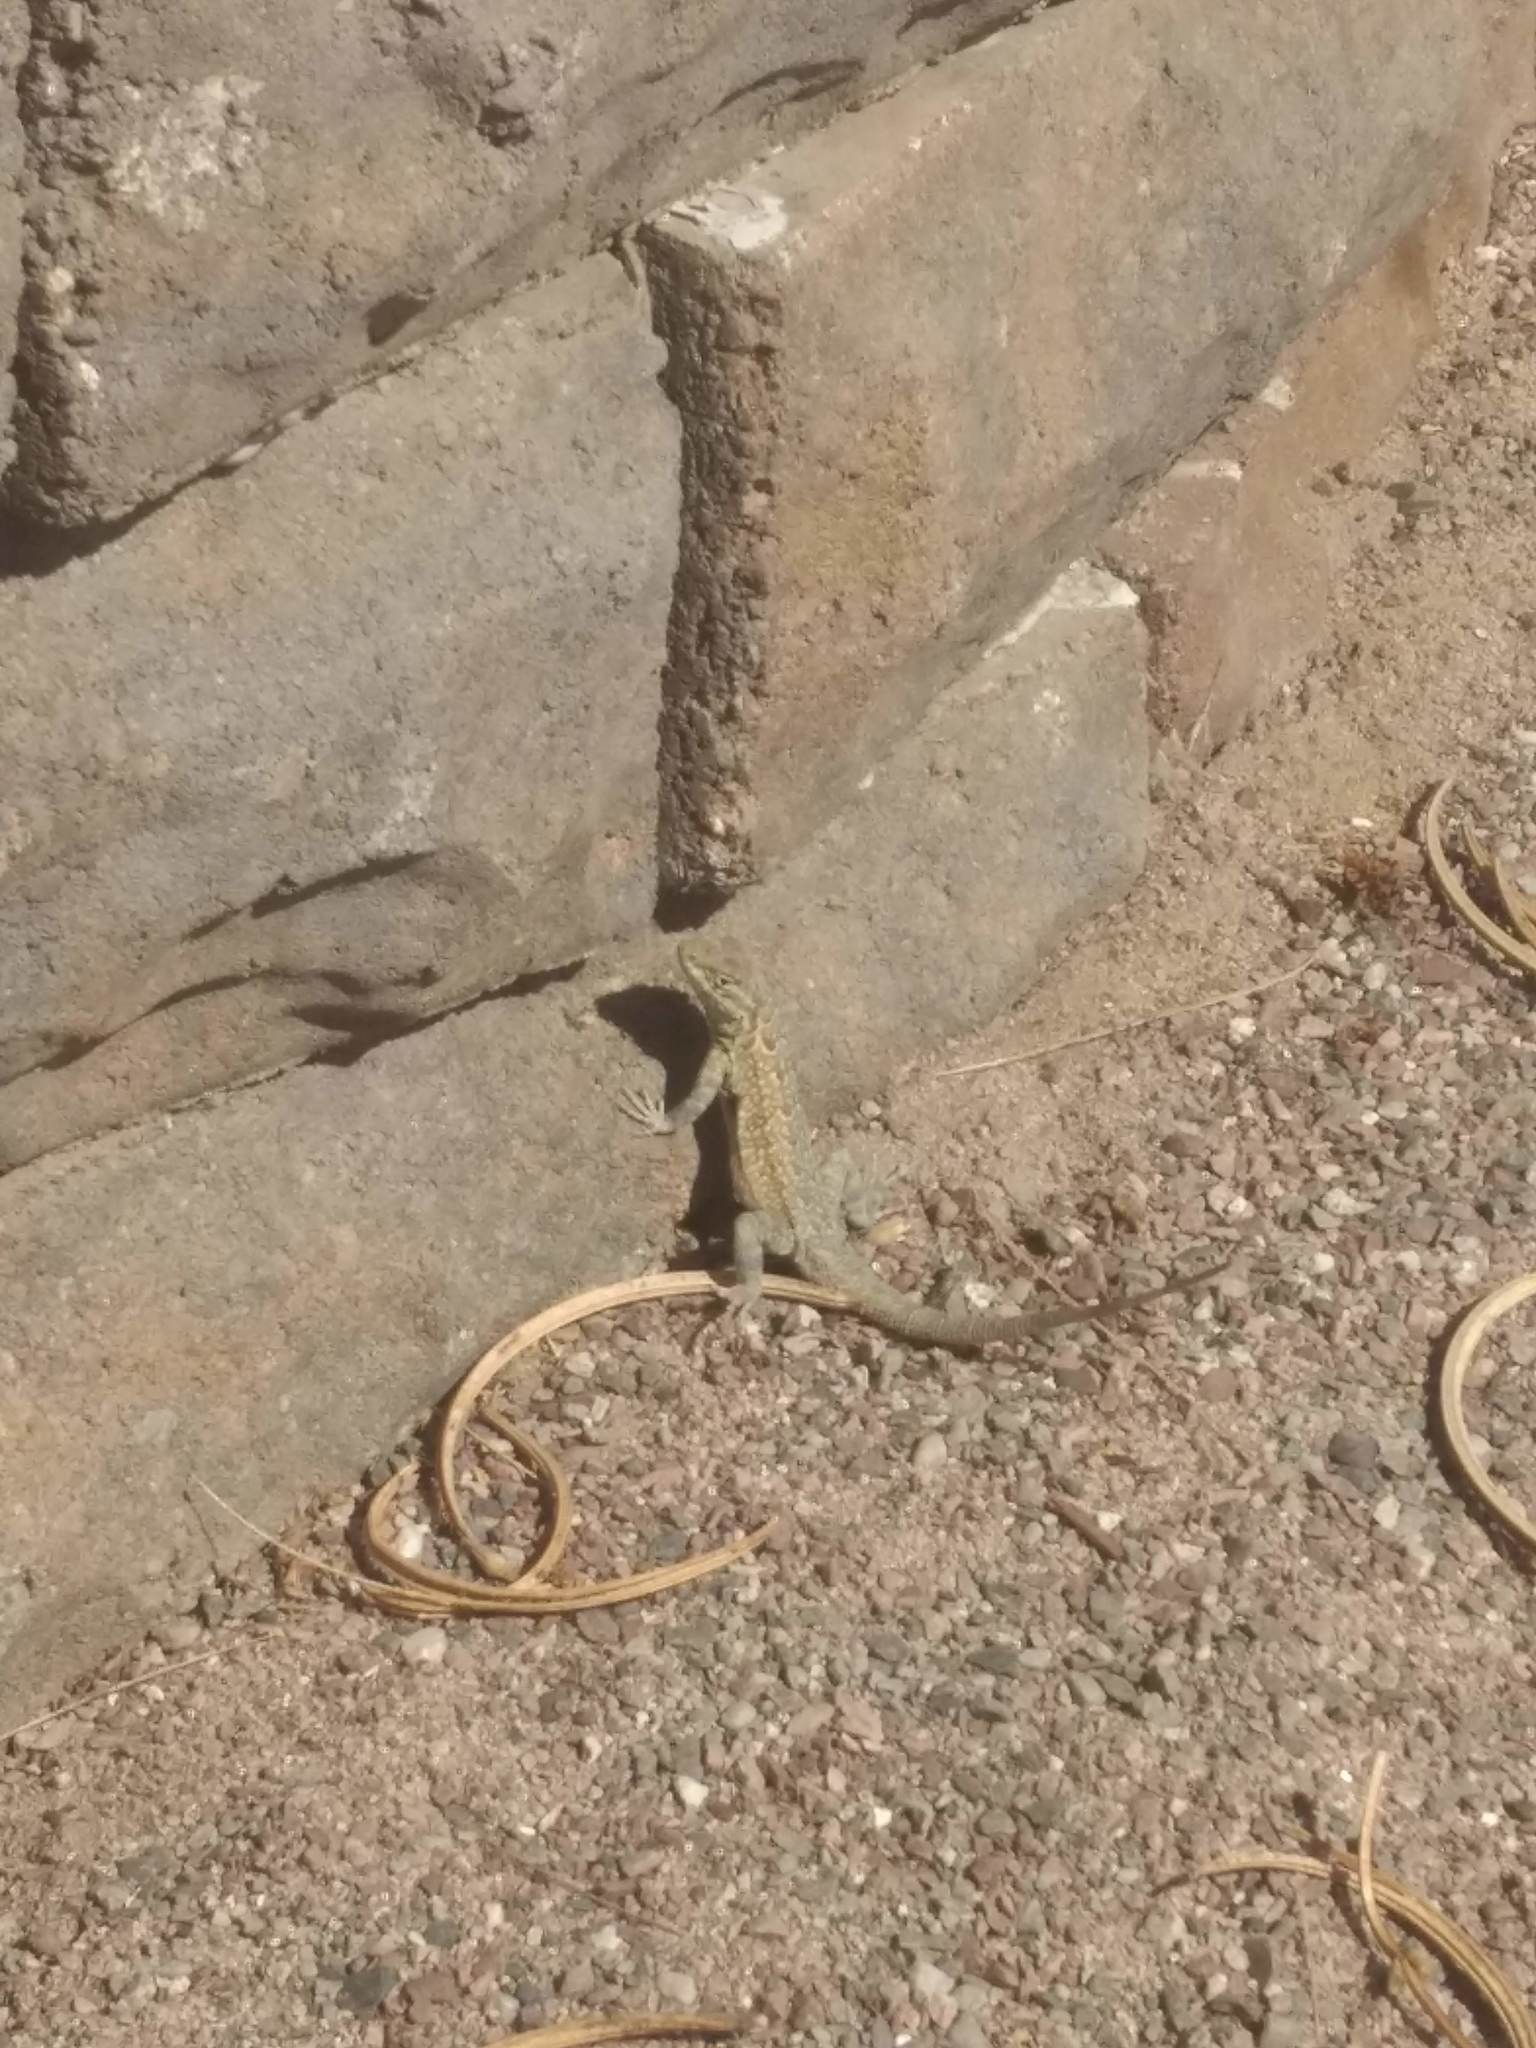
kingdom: Animalia
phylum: Chordata
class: Squamata
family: Phrynosomatidae
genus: Uta
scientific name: Uta stansburiana
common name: Side-blotched lizard
